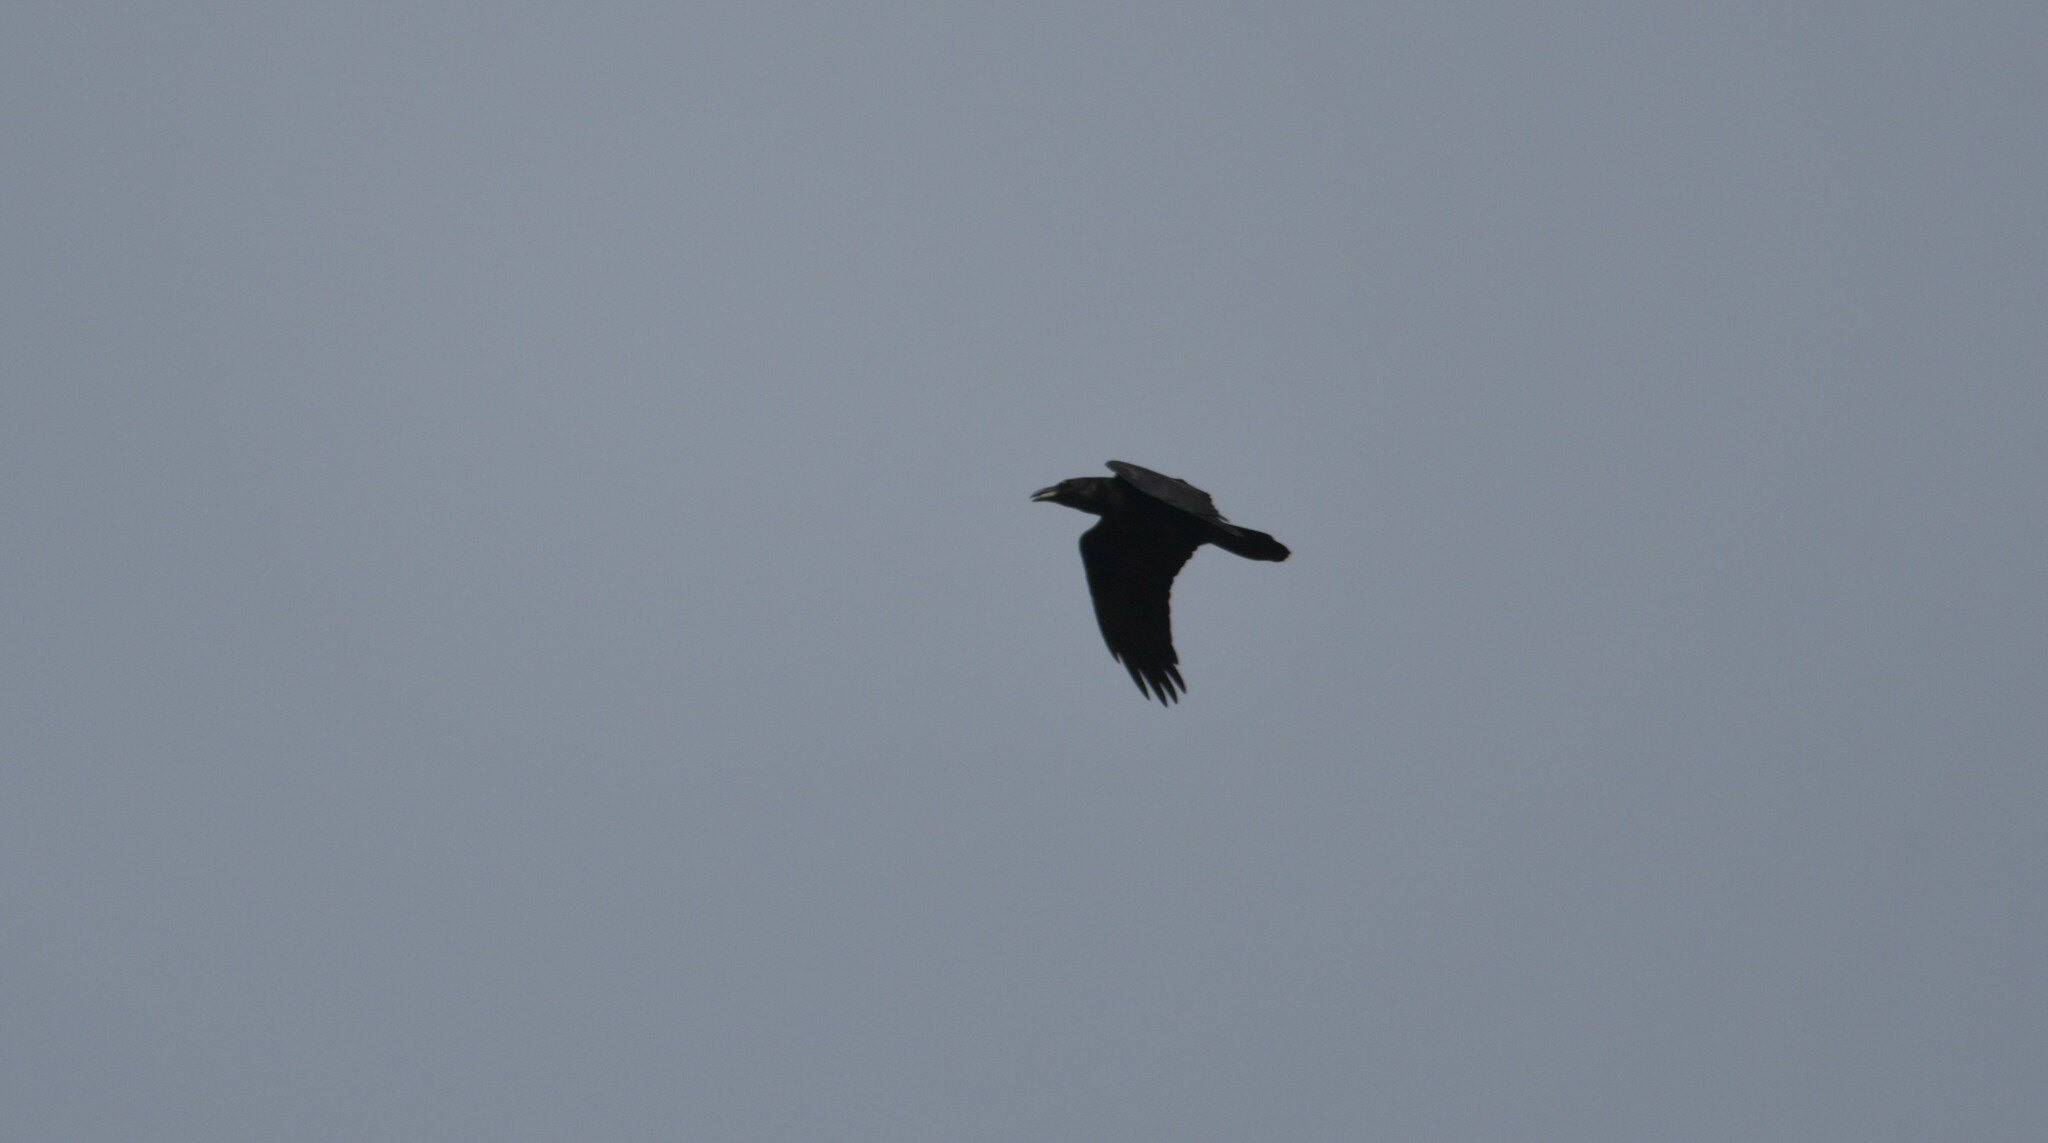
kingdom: Animalia
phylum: Chordata
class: Aves
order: Passeriformes
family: Corvidae
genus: Corvus
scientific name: Corvus corax
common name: Common raven
